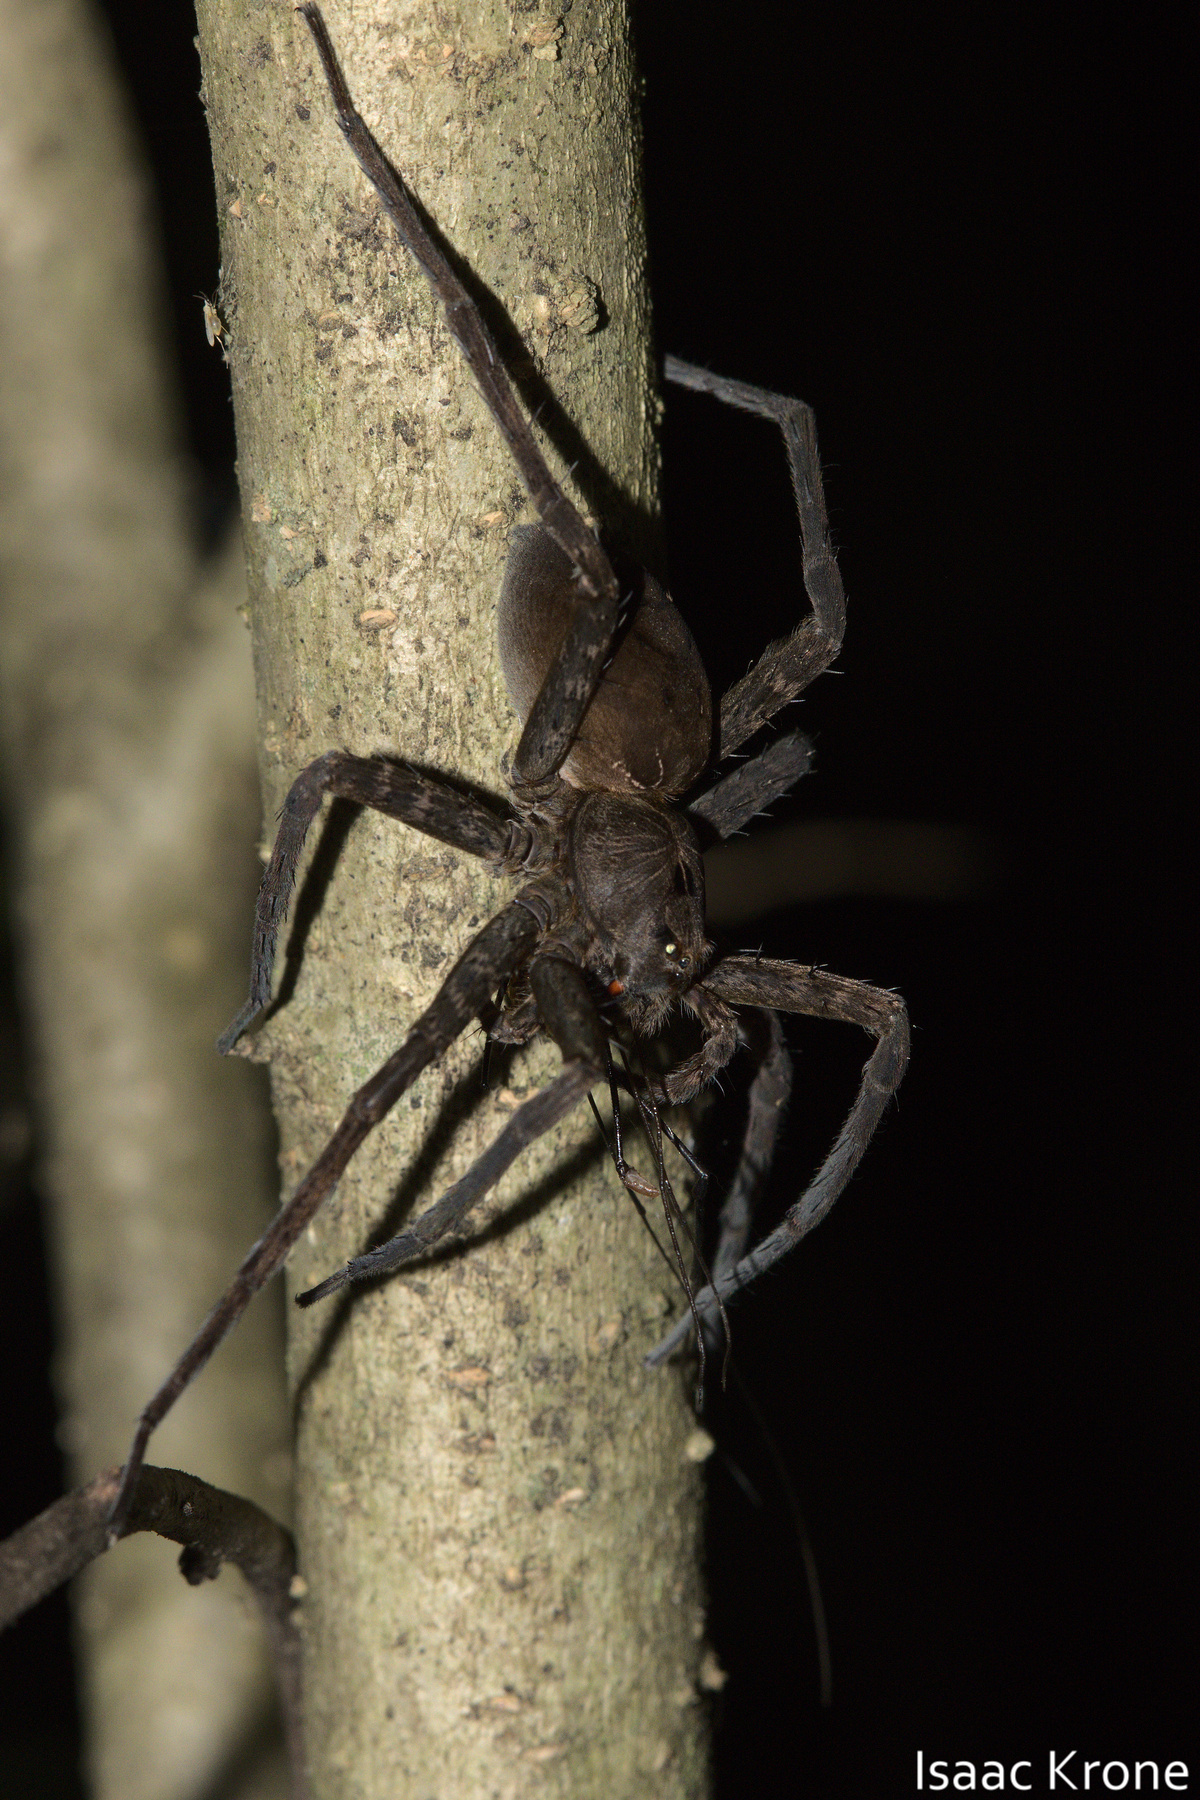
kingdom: Animalia
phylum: Arthropoda
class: Arachnida
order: Araneae
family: Pisauridae
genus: Dolomedes
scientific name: Dolomedes vittatus
